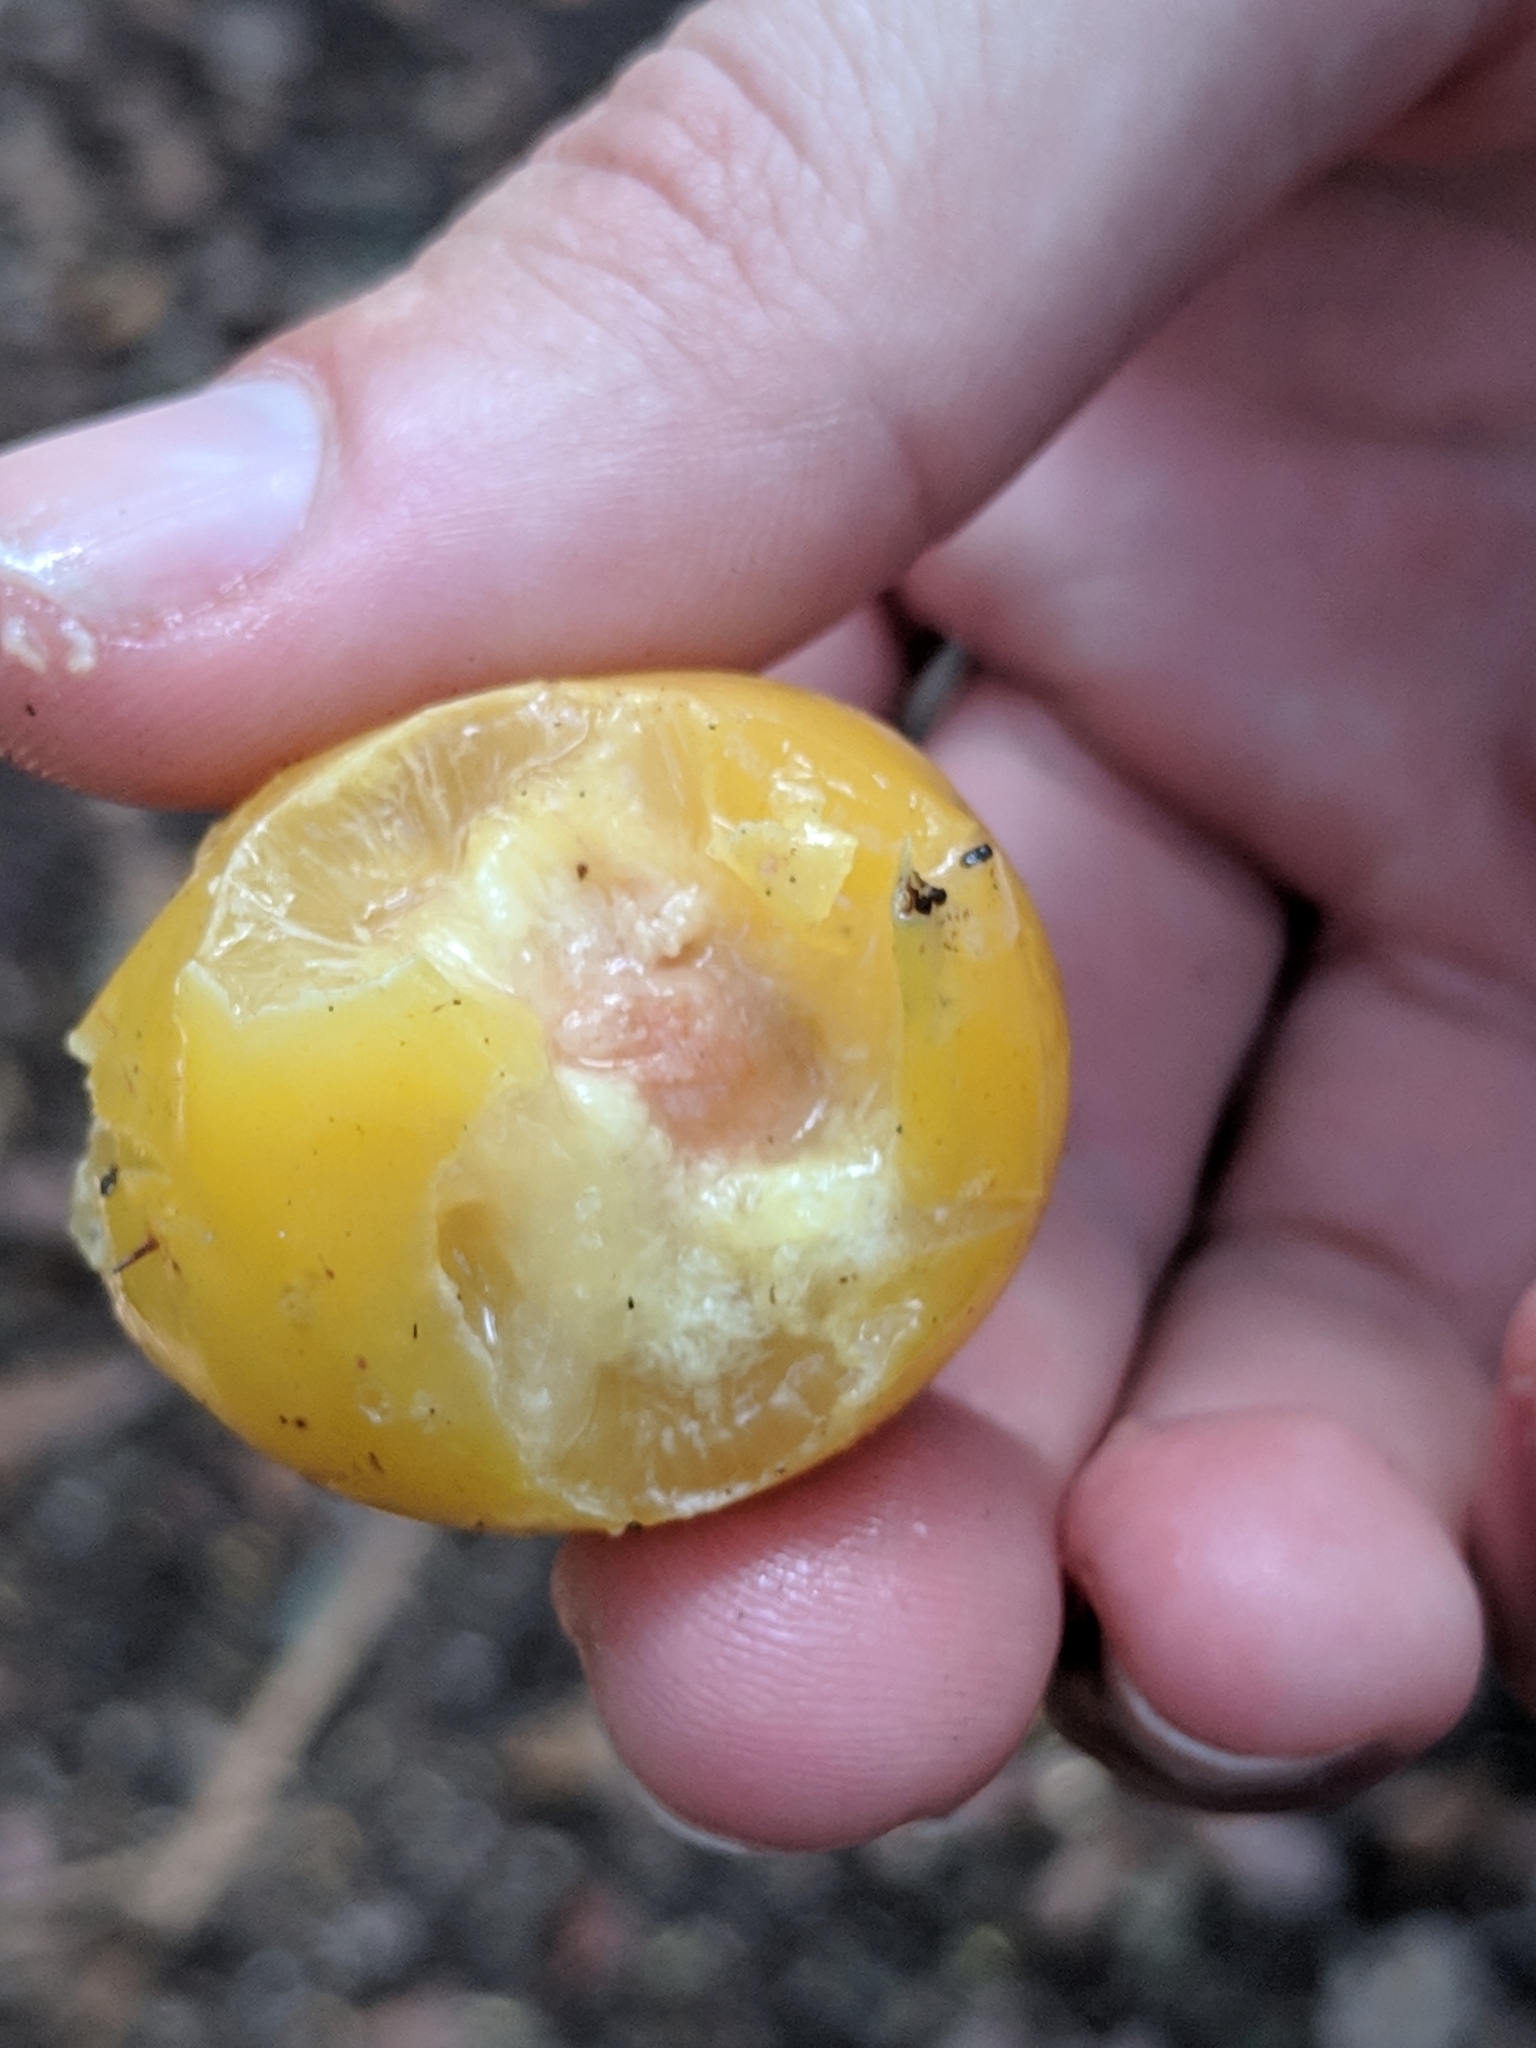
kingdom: Plantae
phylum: Tracheophyta
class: Magnoliopsida
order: Santalales
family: Ximeniaceae
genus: Ximenia
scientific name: Ximenia americana
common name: Tallowwood
